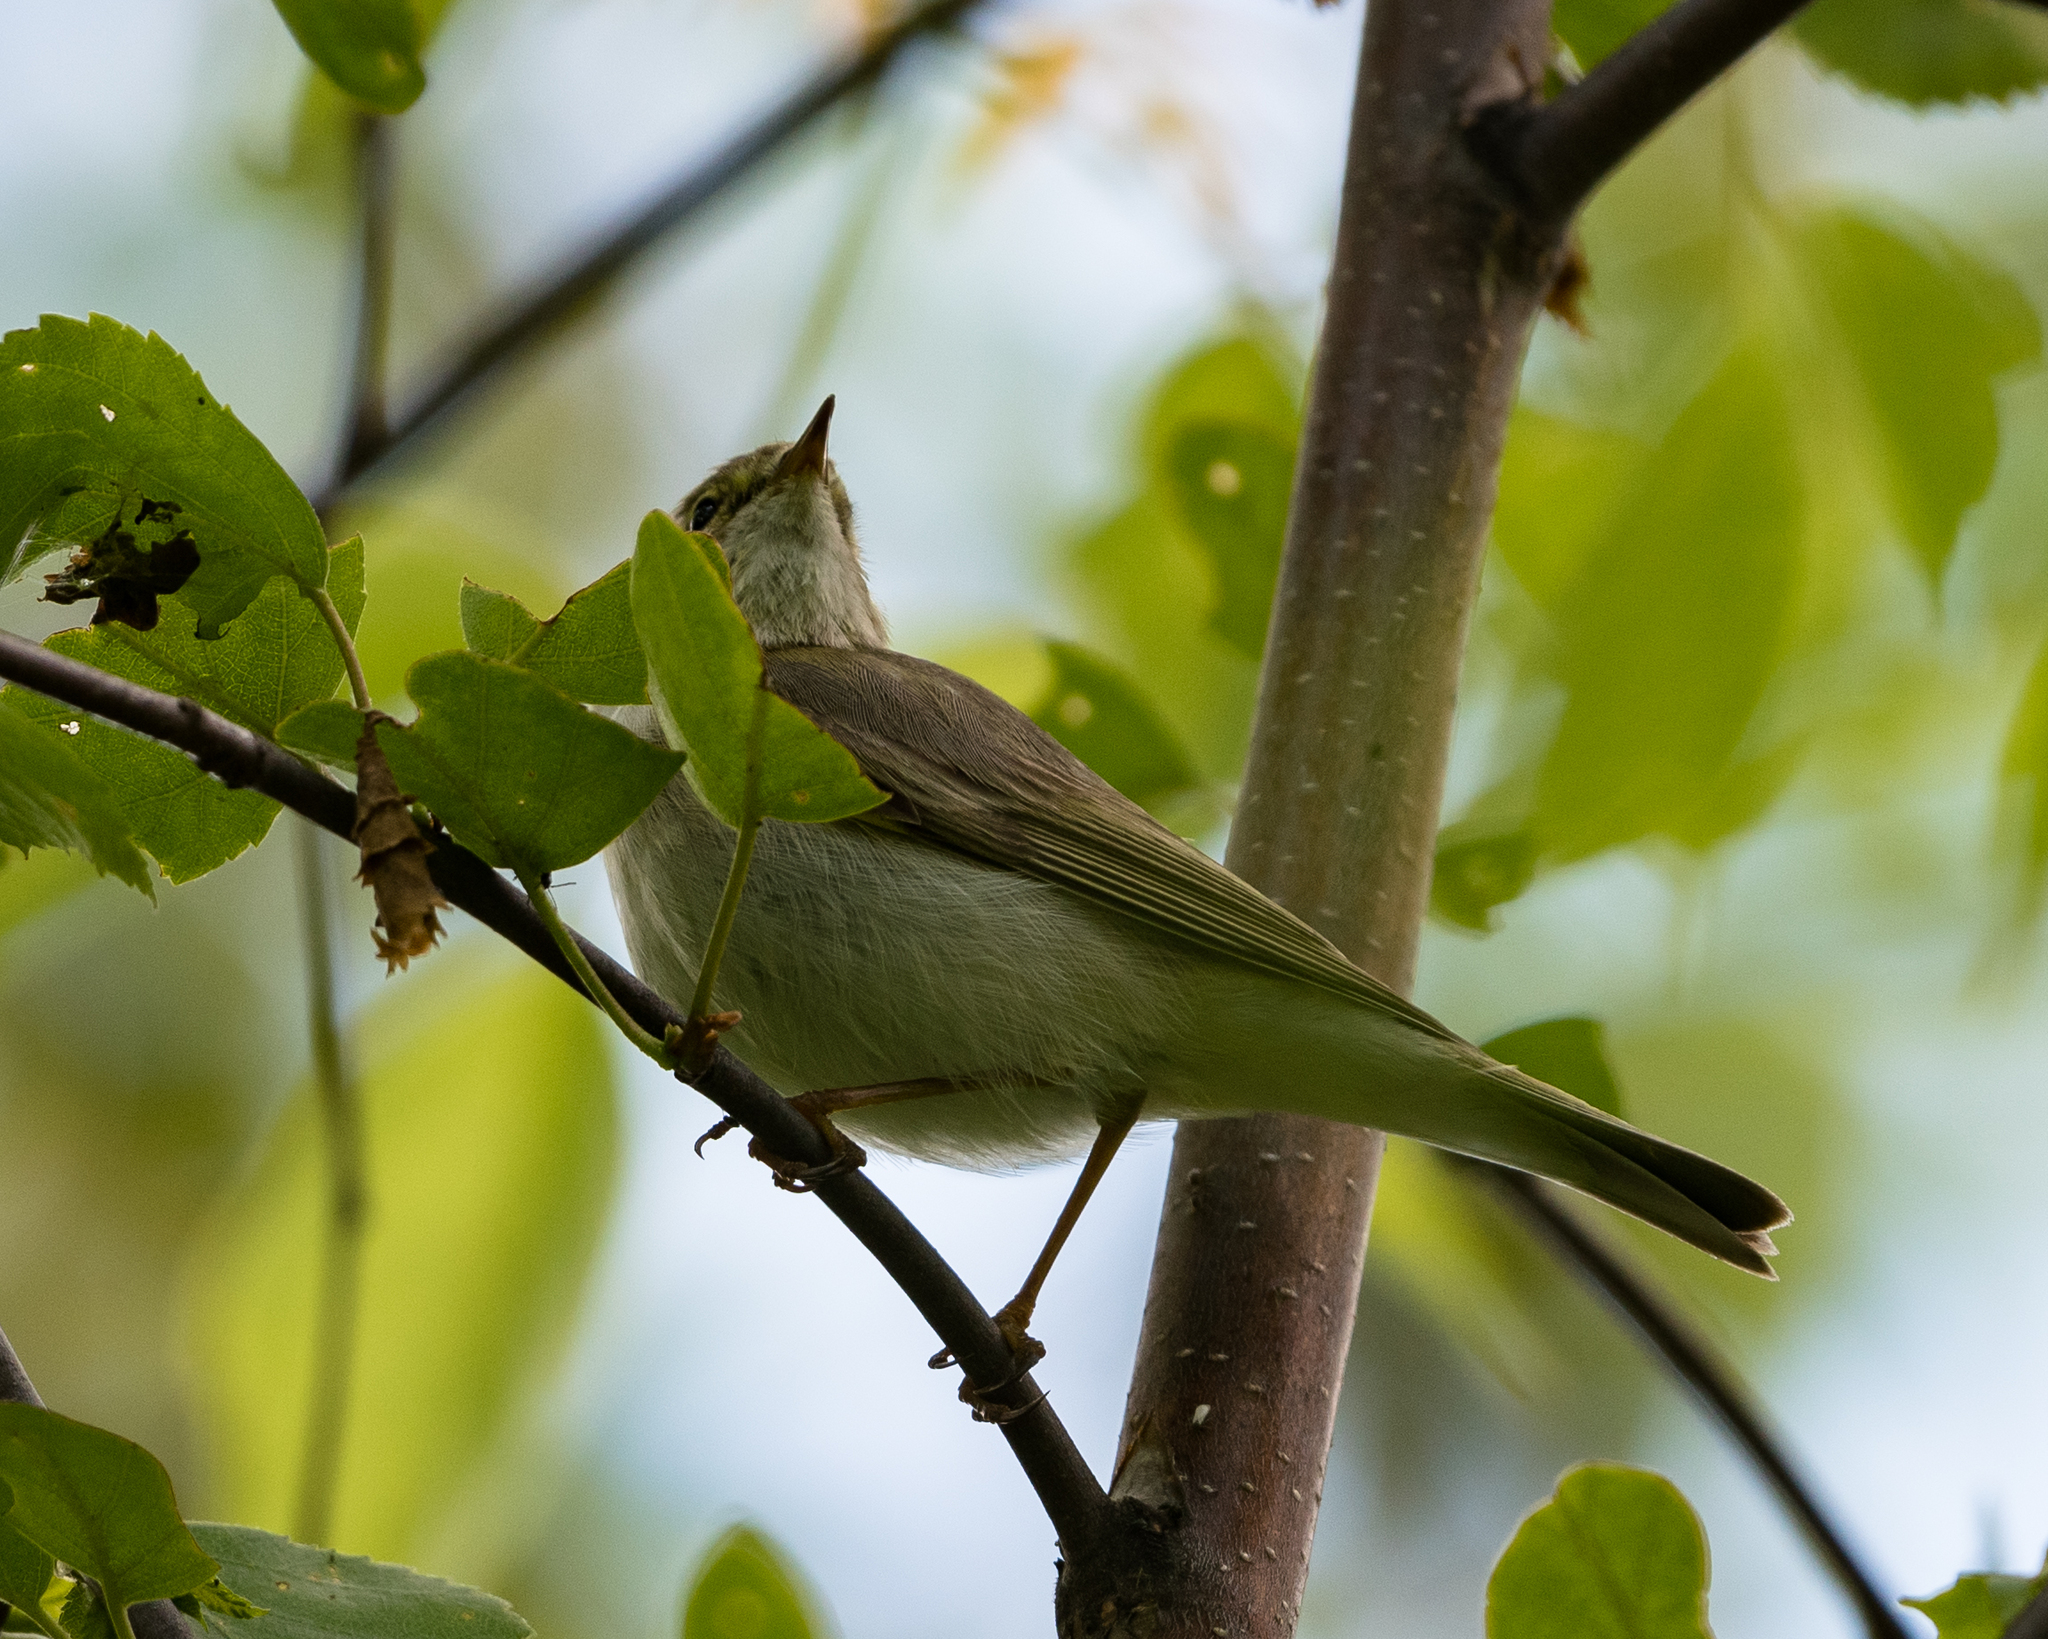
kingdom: Animalia
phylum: Chordata
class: Aves
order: Passeriformes
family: Phylloscopidae
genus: Phylloscopus
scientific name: Phylloscopus trochilus
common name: Willow warbler
